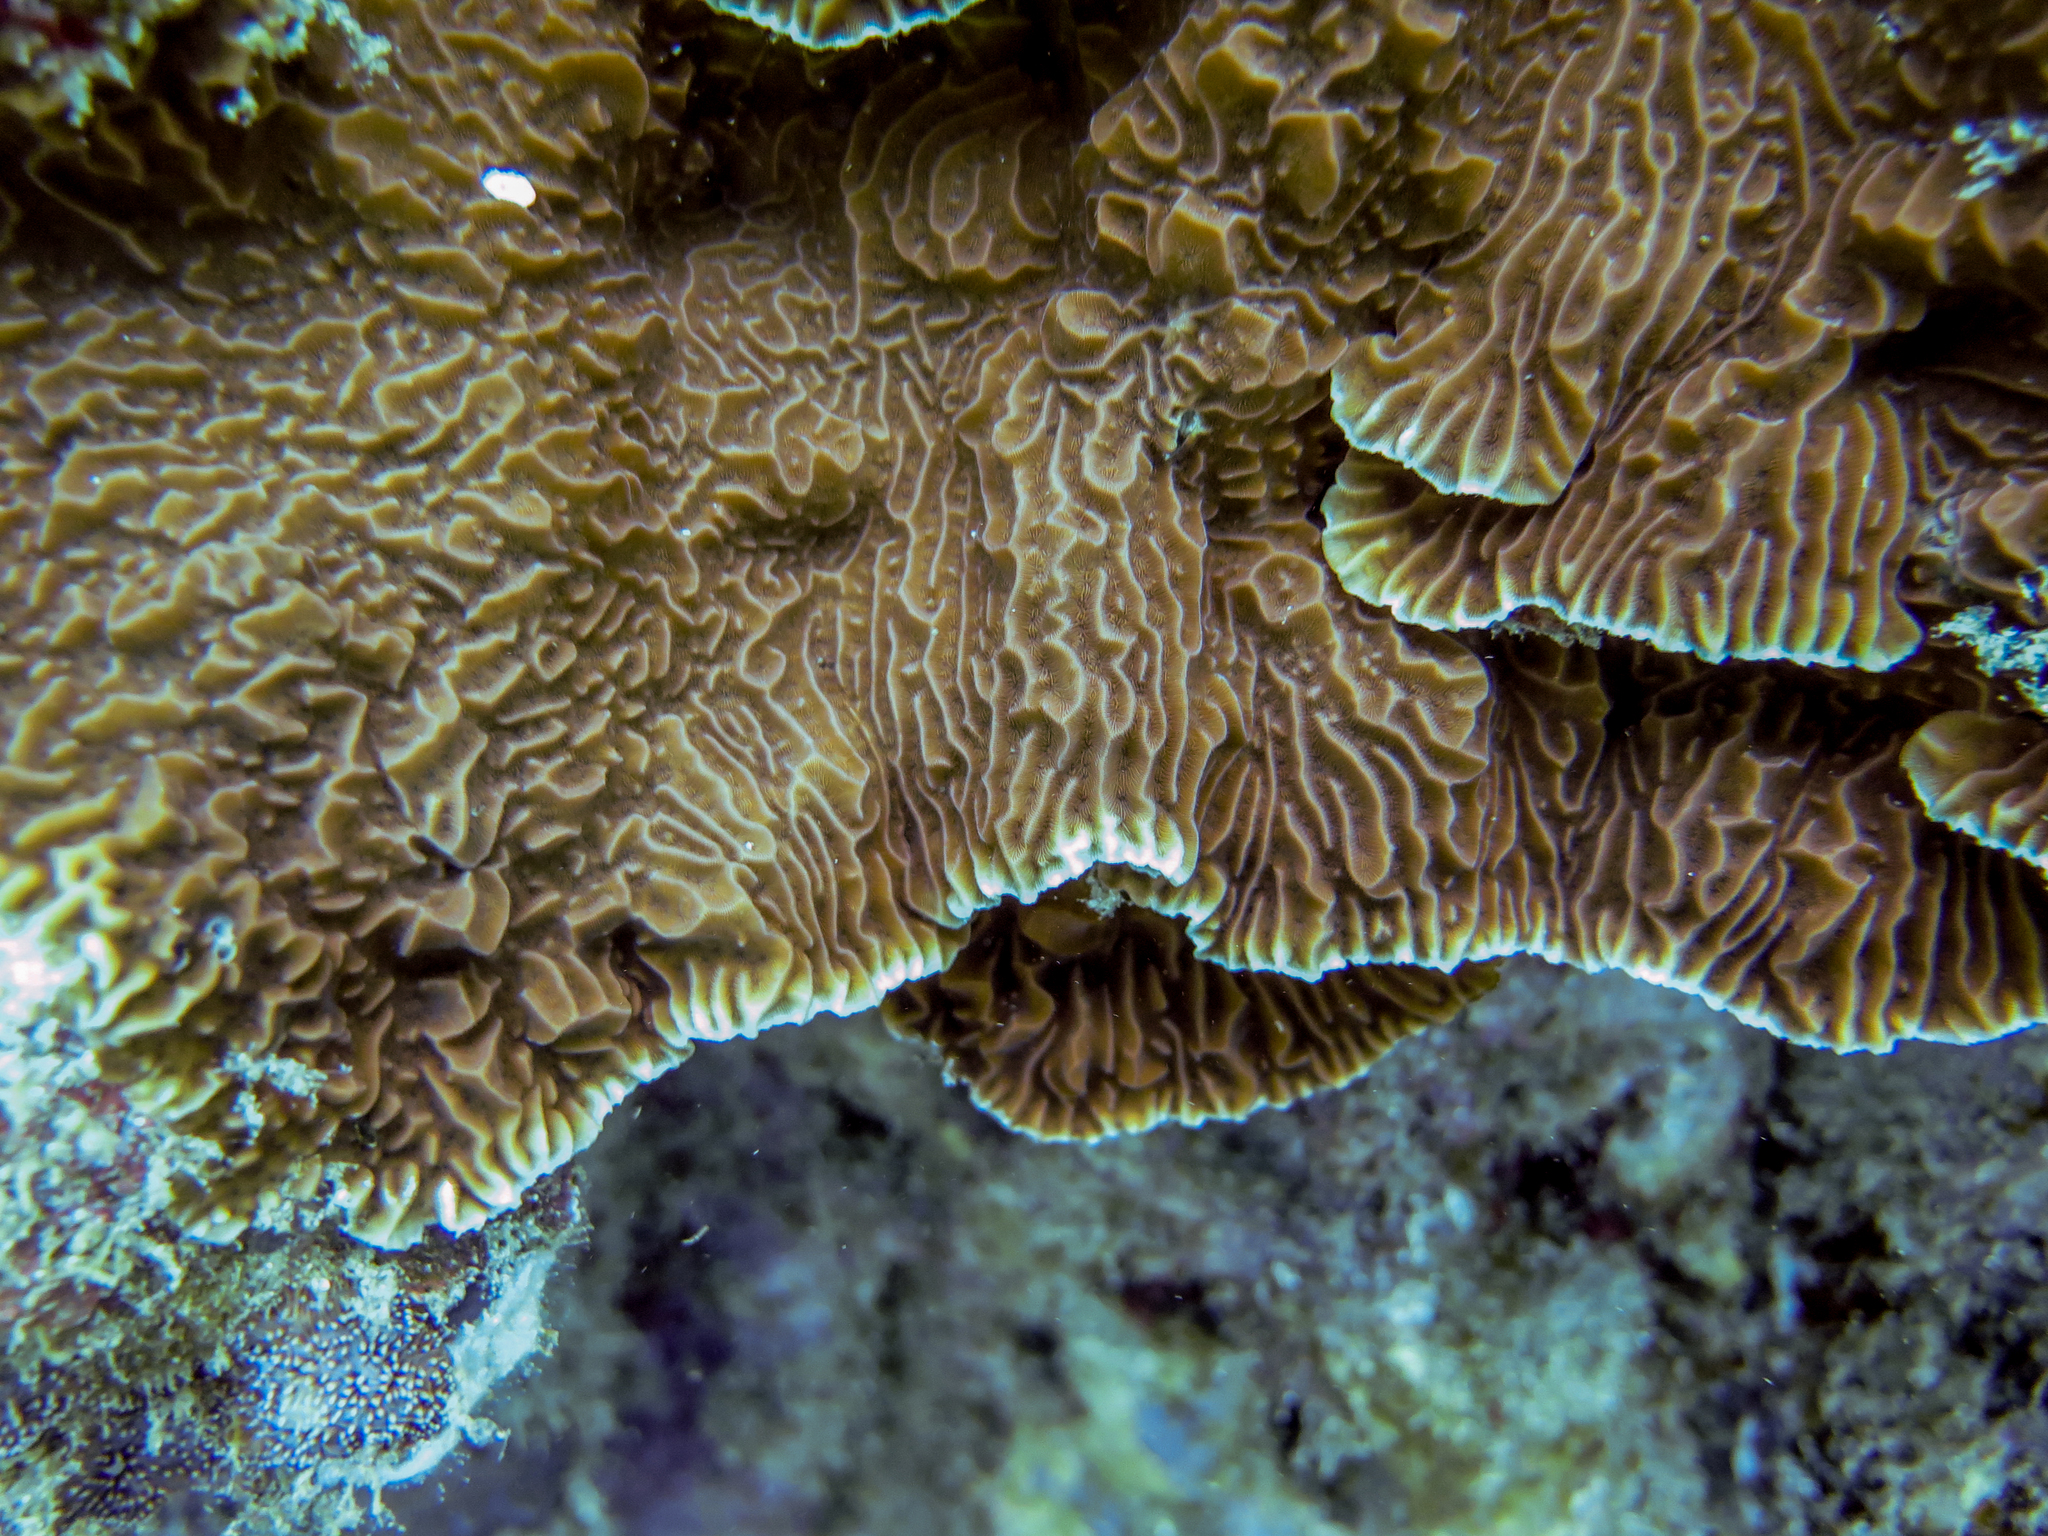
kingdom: Animalia
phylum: Cnidaria
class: Anthozoa
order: Scleractinia
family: Agariciidae
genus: Pavona
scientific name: Pavona varians
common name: Leaf coral
